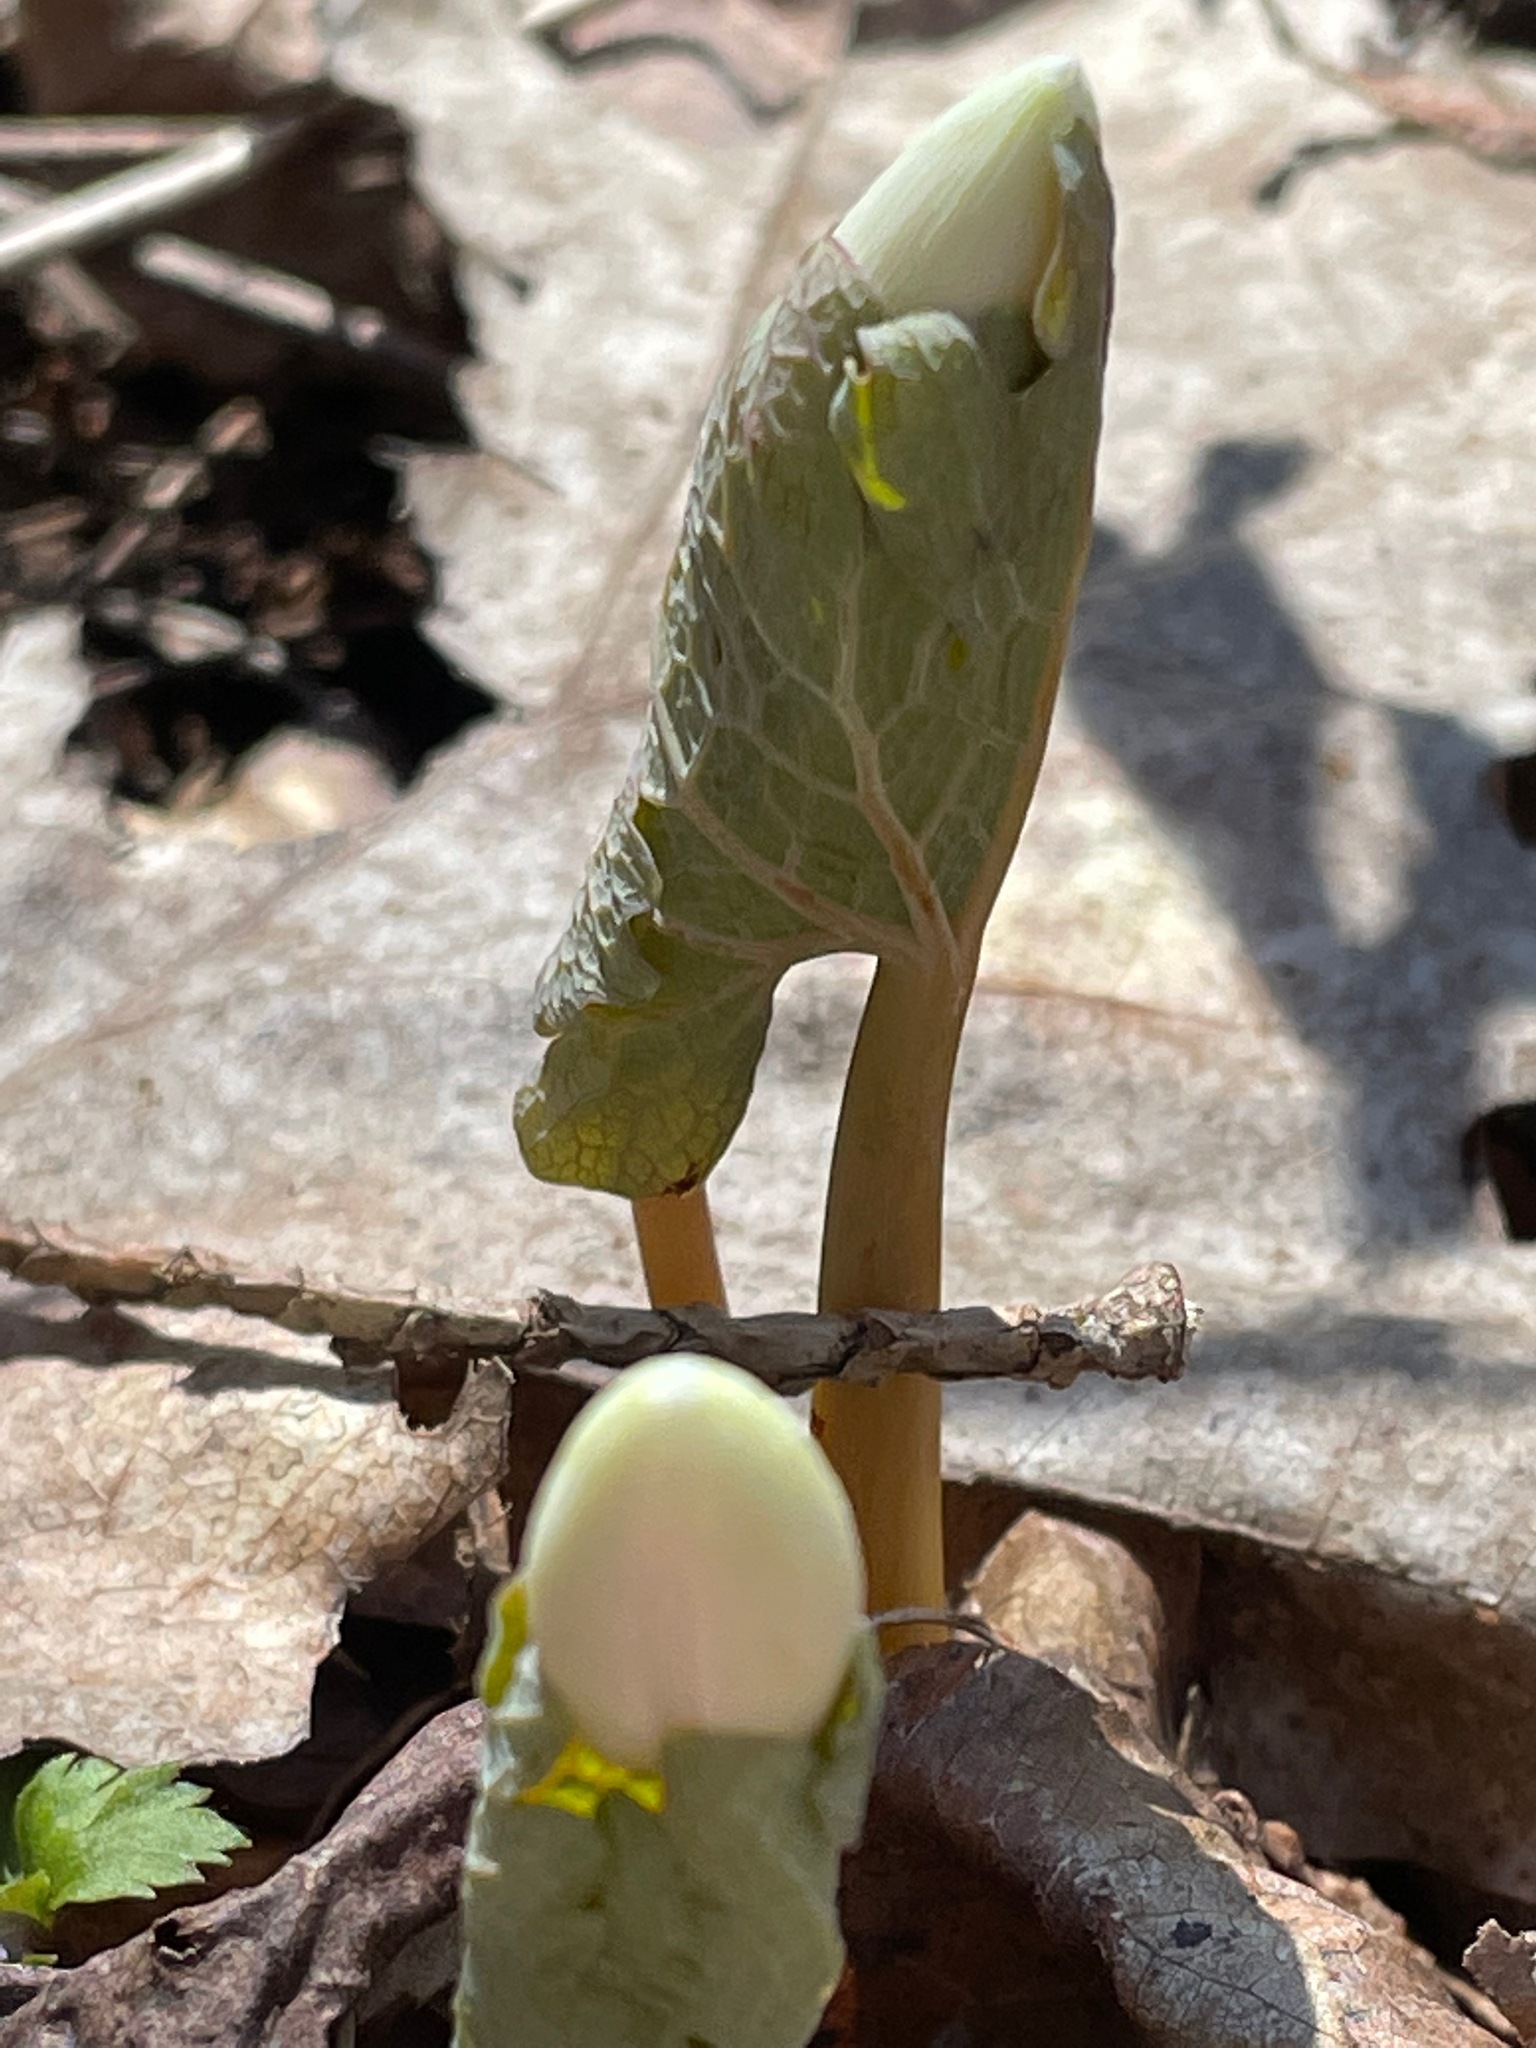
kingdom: Plantae
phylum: Tracheophyta
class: Magnoliopsida
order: Ranunculales
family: Papaveraceae
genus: Sanguinaria
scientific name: Sanguinaria canadensis
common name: Bloodroot
